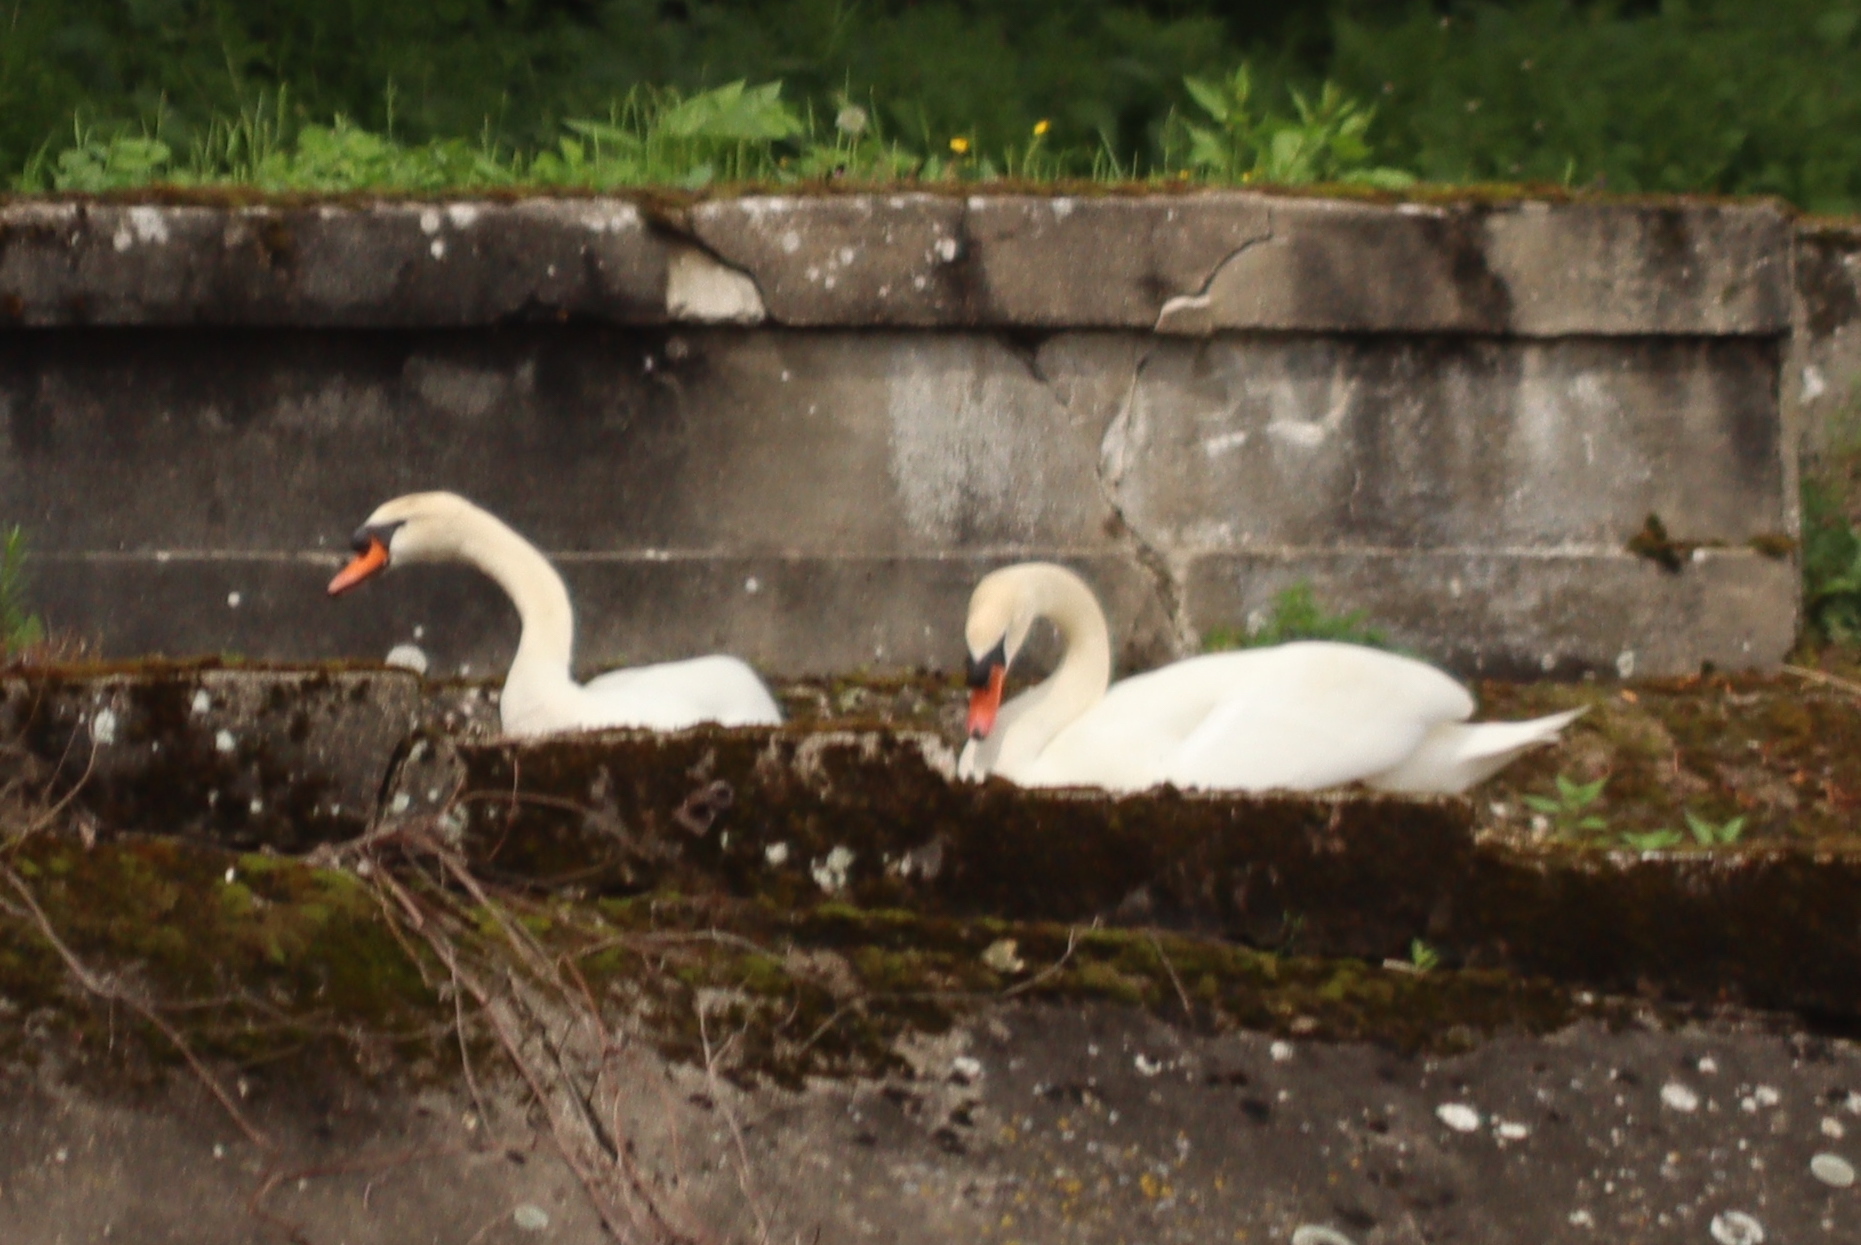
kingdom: Animalia
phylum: Chordata
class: Aves
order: Anseriformes
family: Anatidae
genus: Cygnus
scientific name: Cygnus olor
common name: Mute swan
